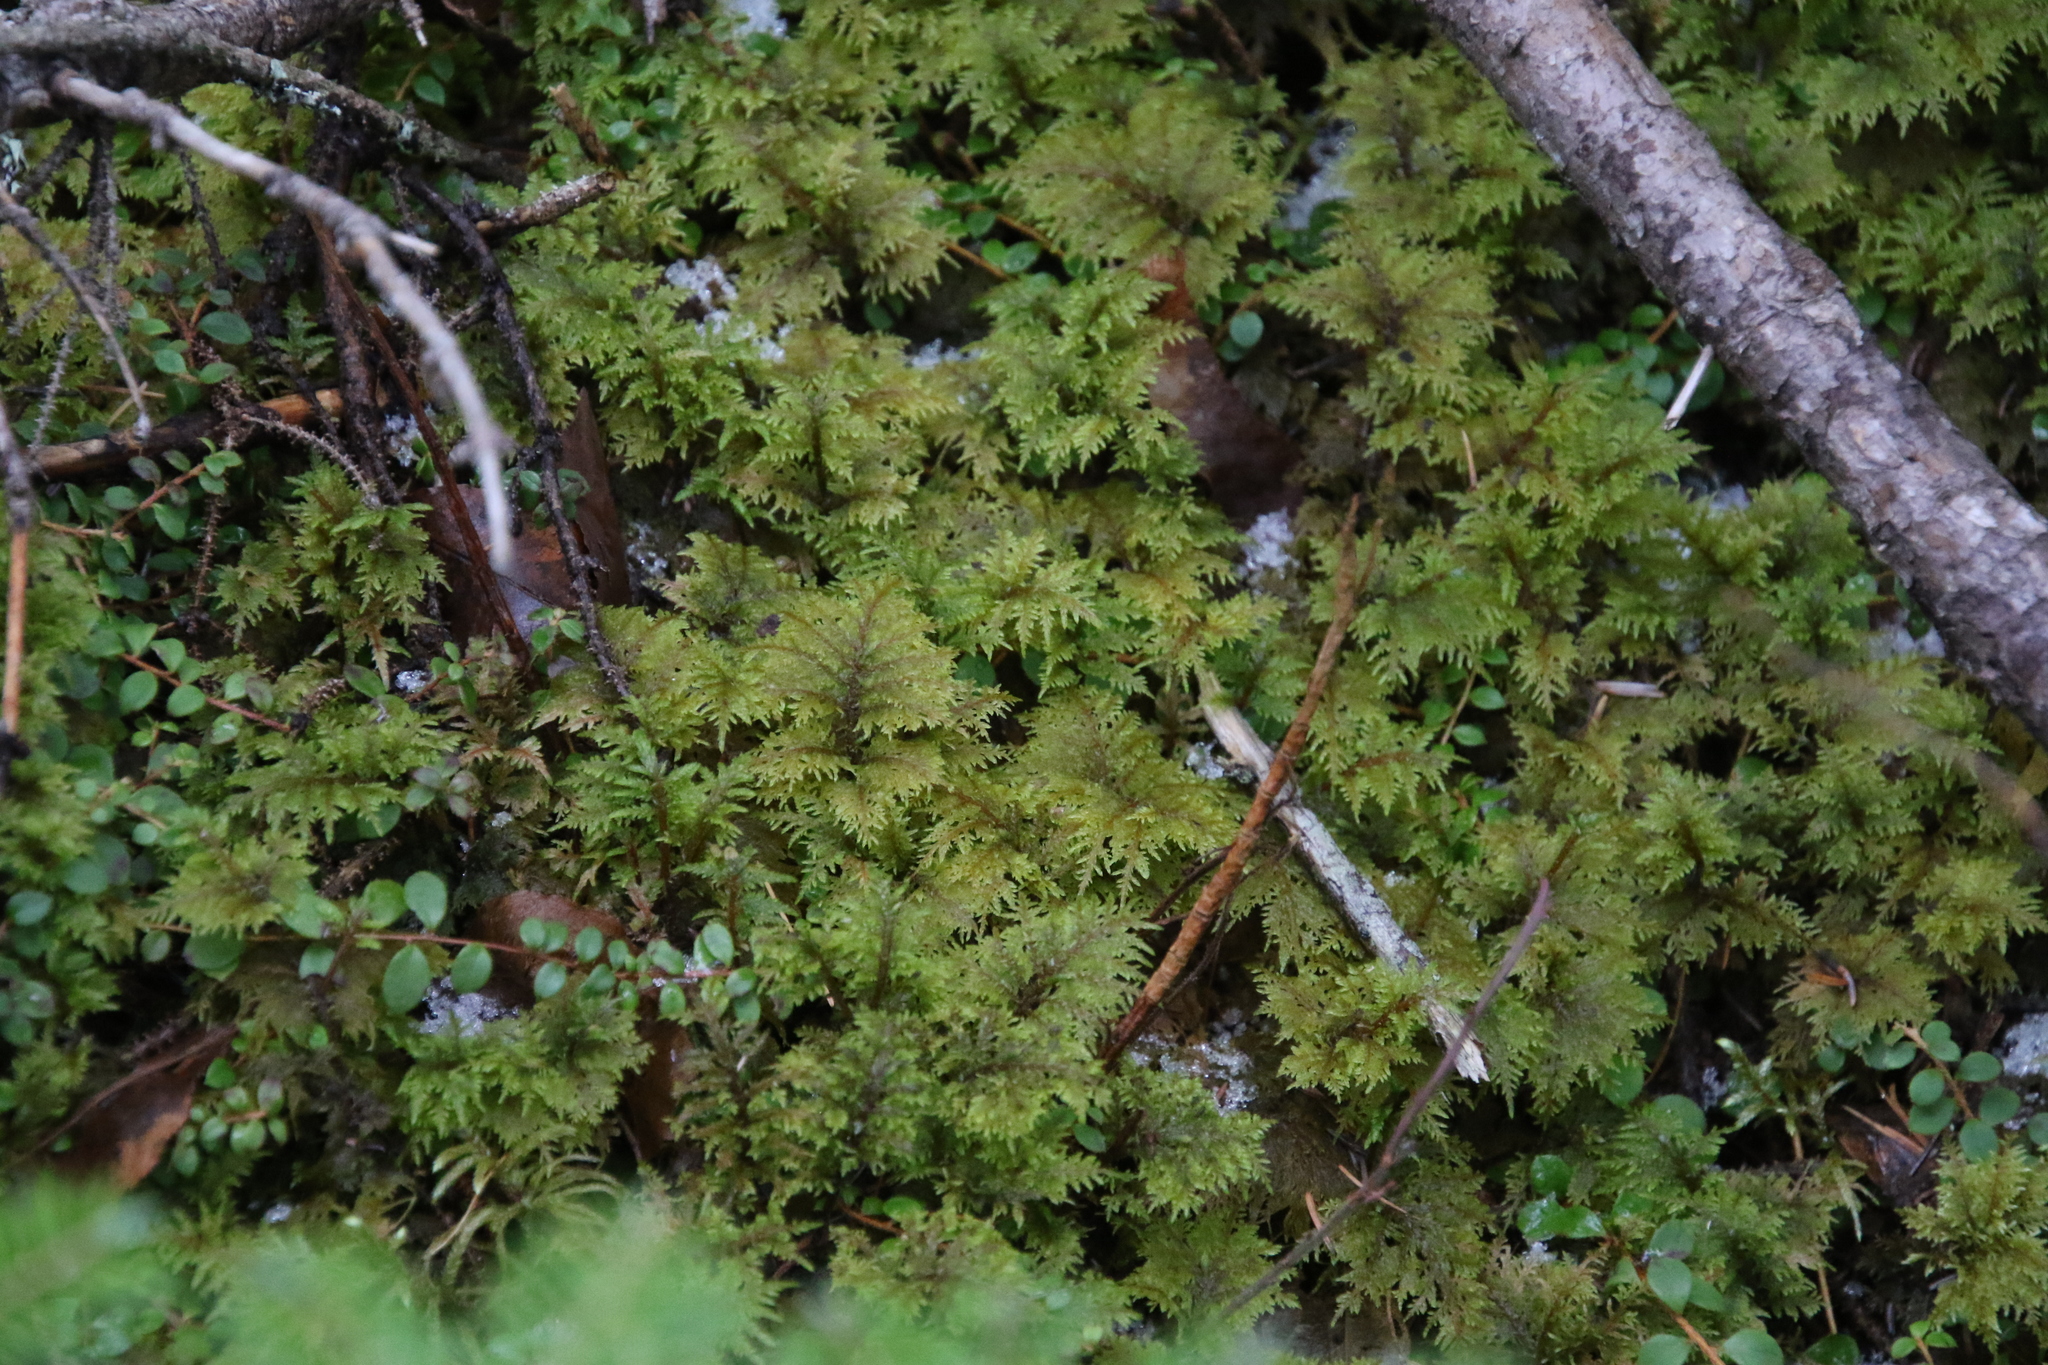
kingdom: Plantae
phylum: Bryophyta
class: Bryopsida
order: Hypnales
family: Hylocomiaceae
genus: Hylocomium
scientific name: Hylocomium splendens
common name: Stairstep moss
